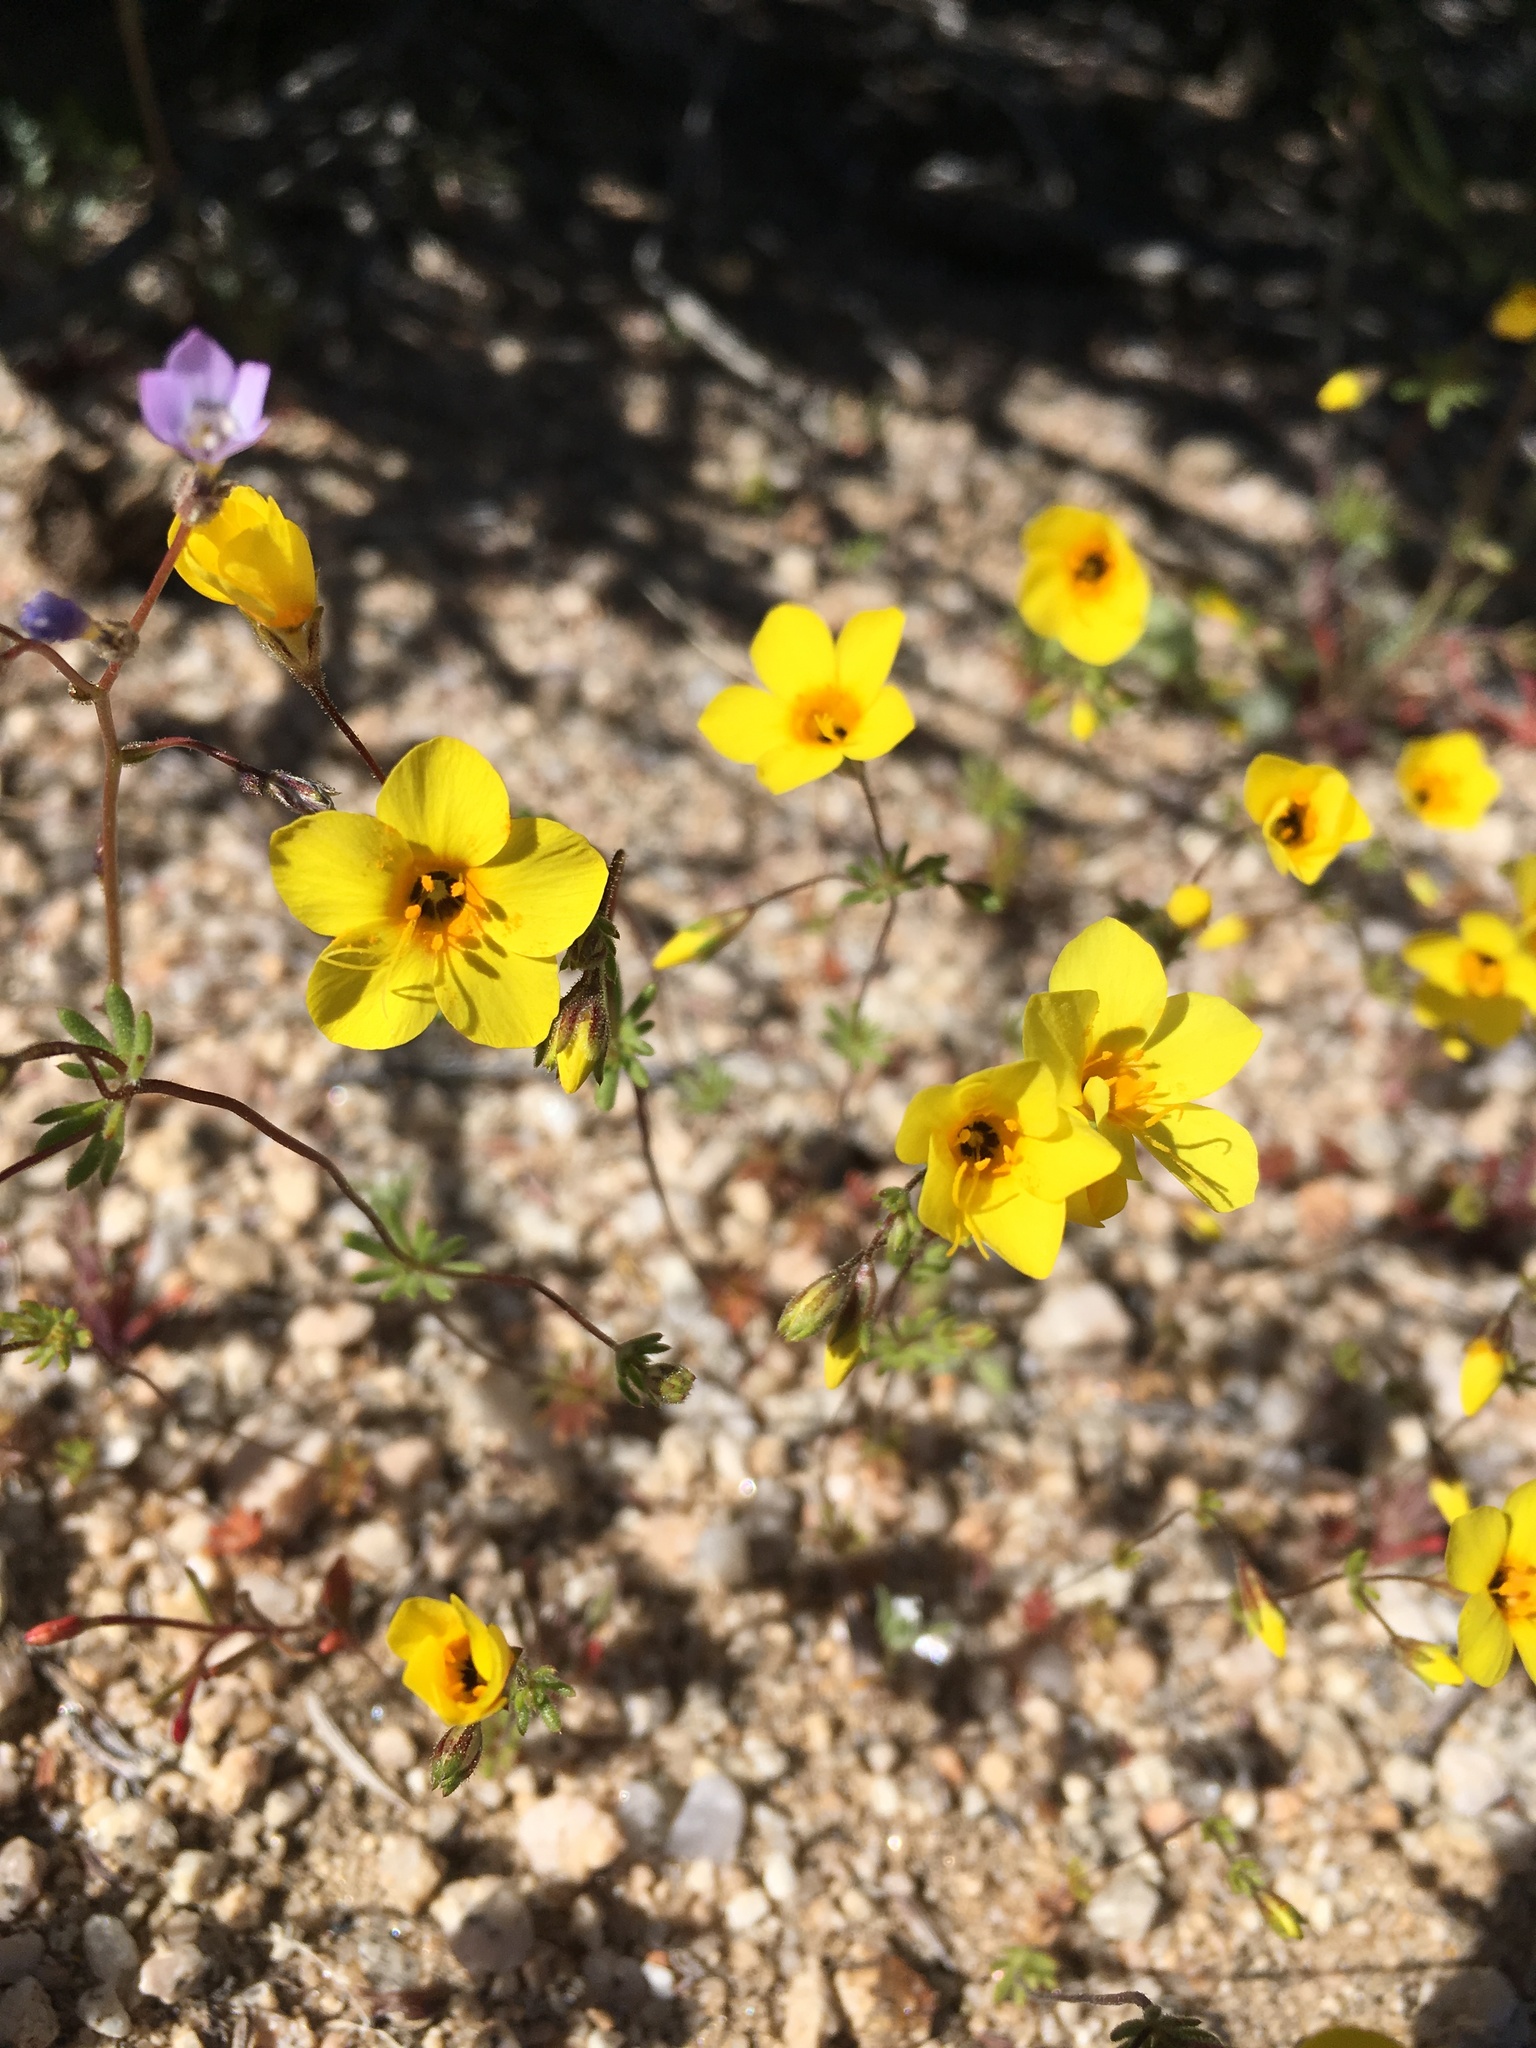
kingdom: Plantae
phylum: Tracheophyta
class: Magnoliopsida
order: Ericales
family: Polemoniaceae
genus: Leptosiphon
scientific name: Leptosiphon chrysanthus
